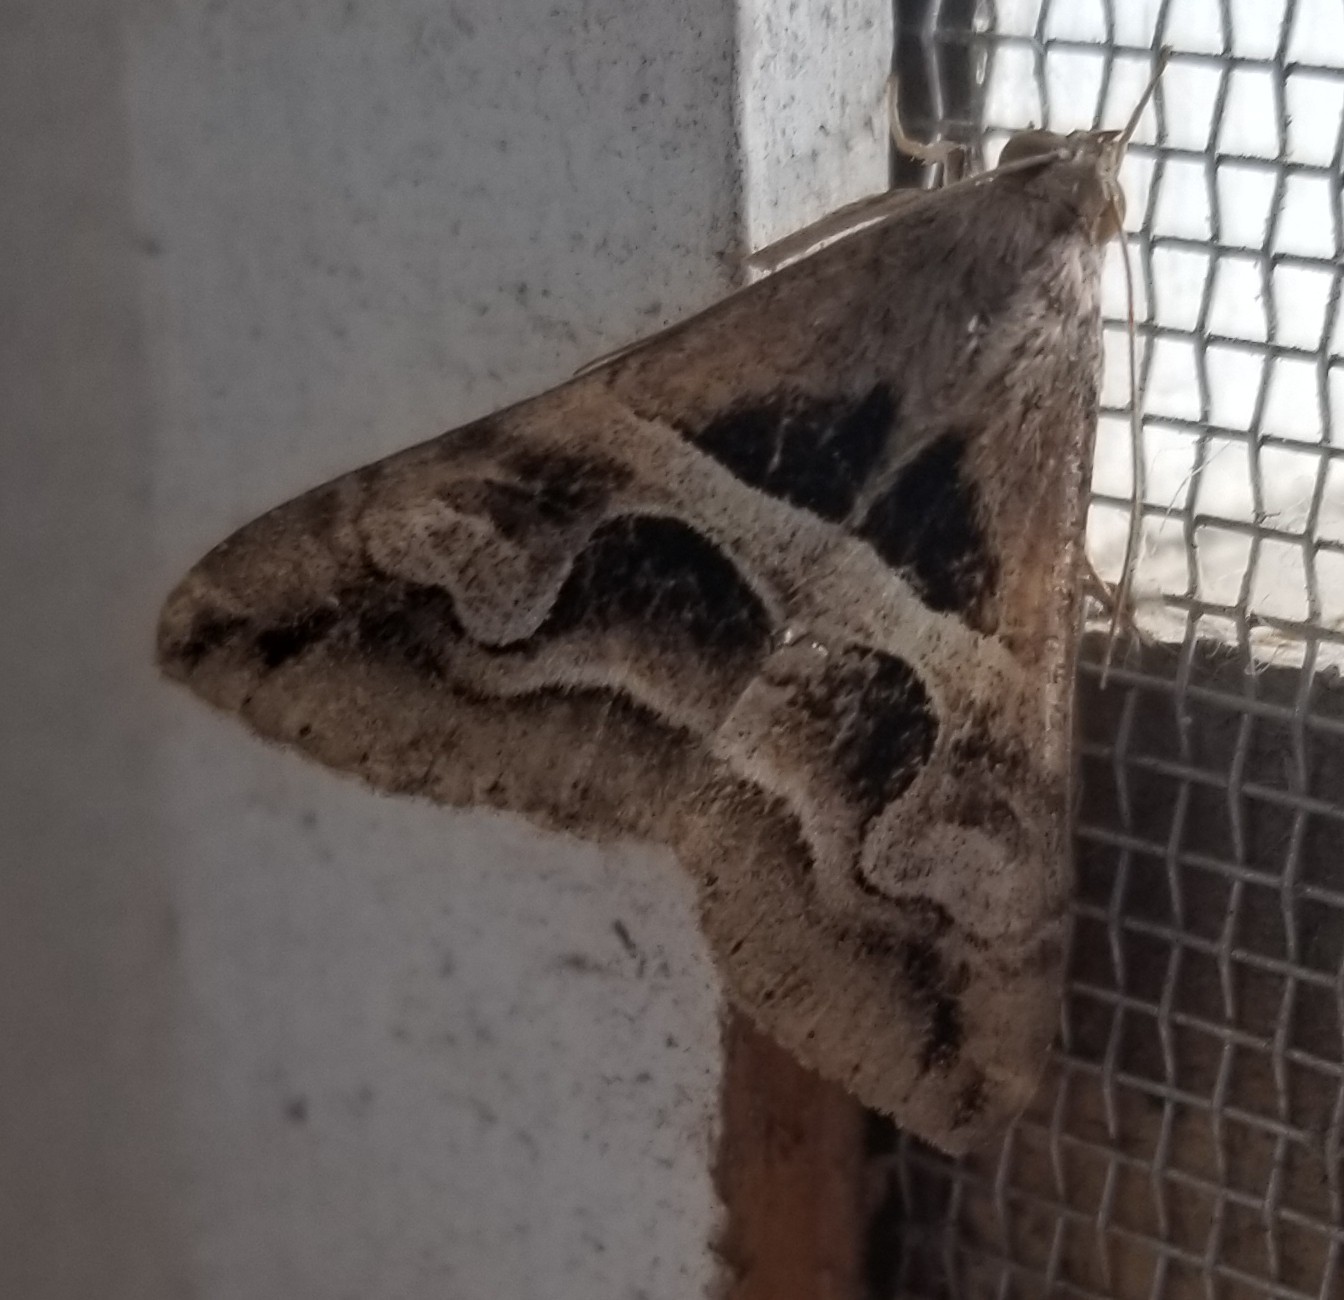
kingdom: Animalia
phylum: Arthropoda
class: Insecta
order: Lepidoptera
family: Erebidae
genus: Melipotis
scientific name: Melipotis cellaris
